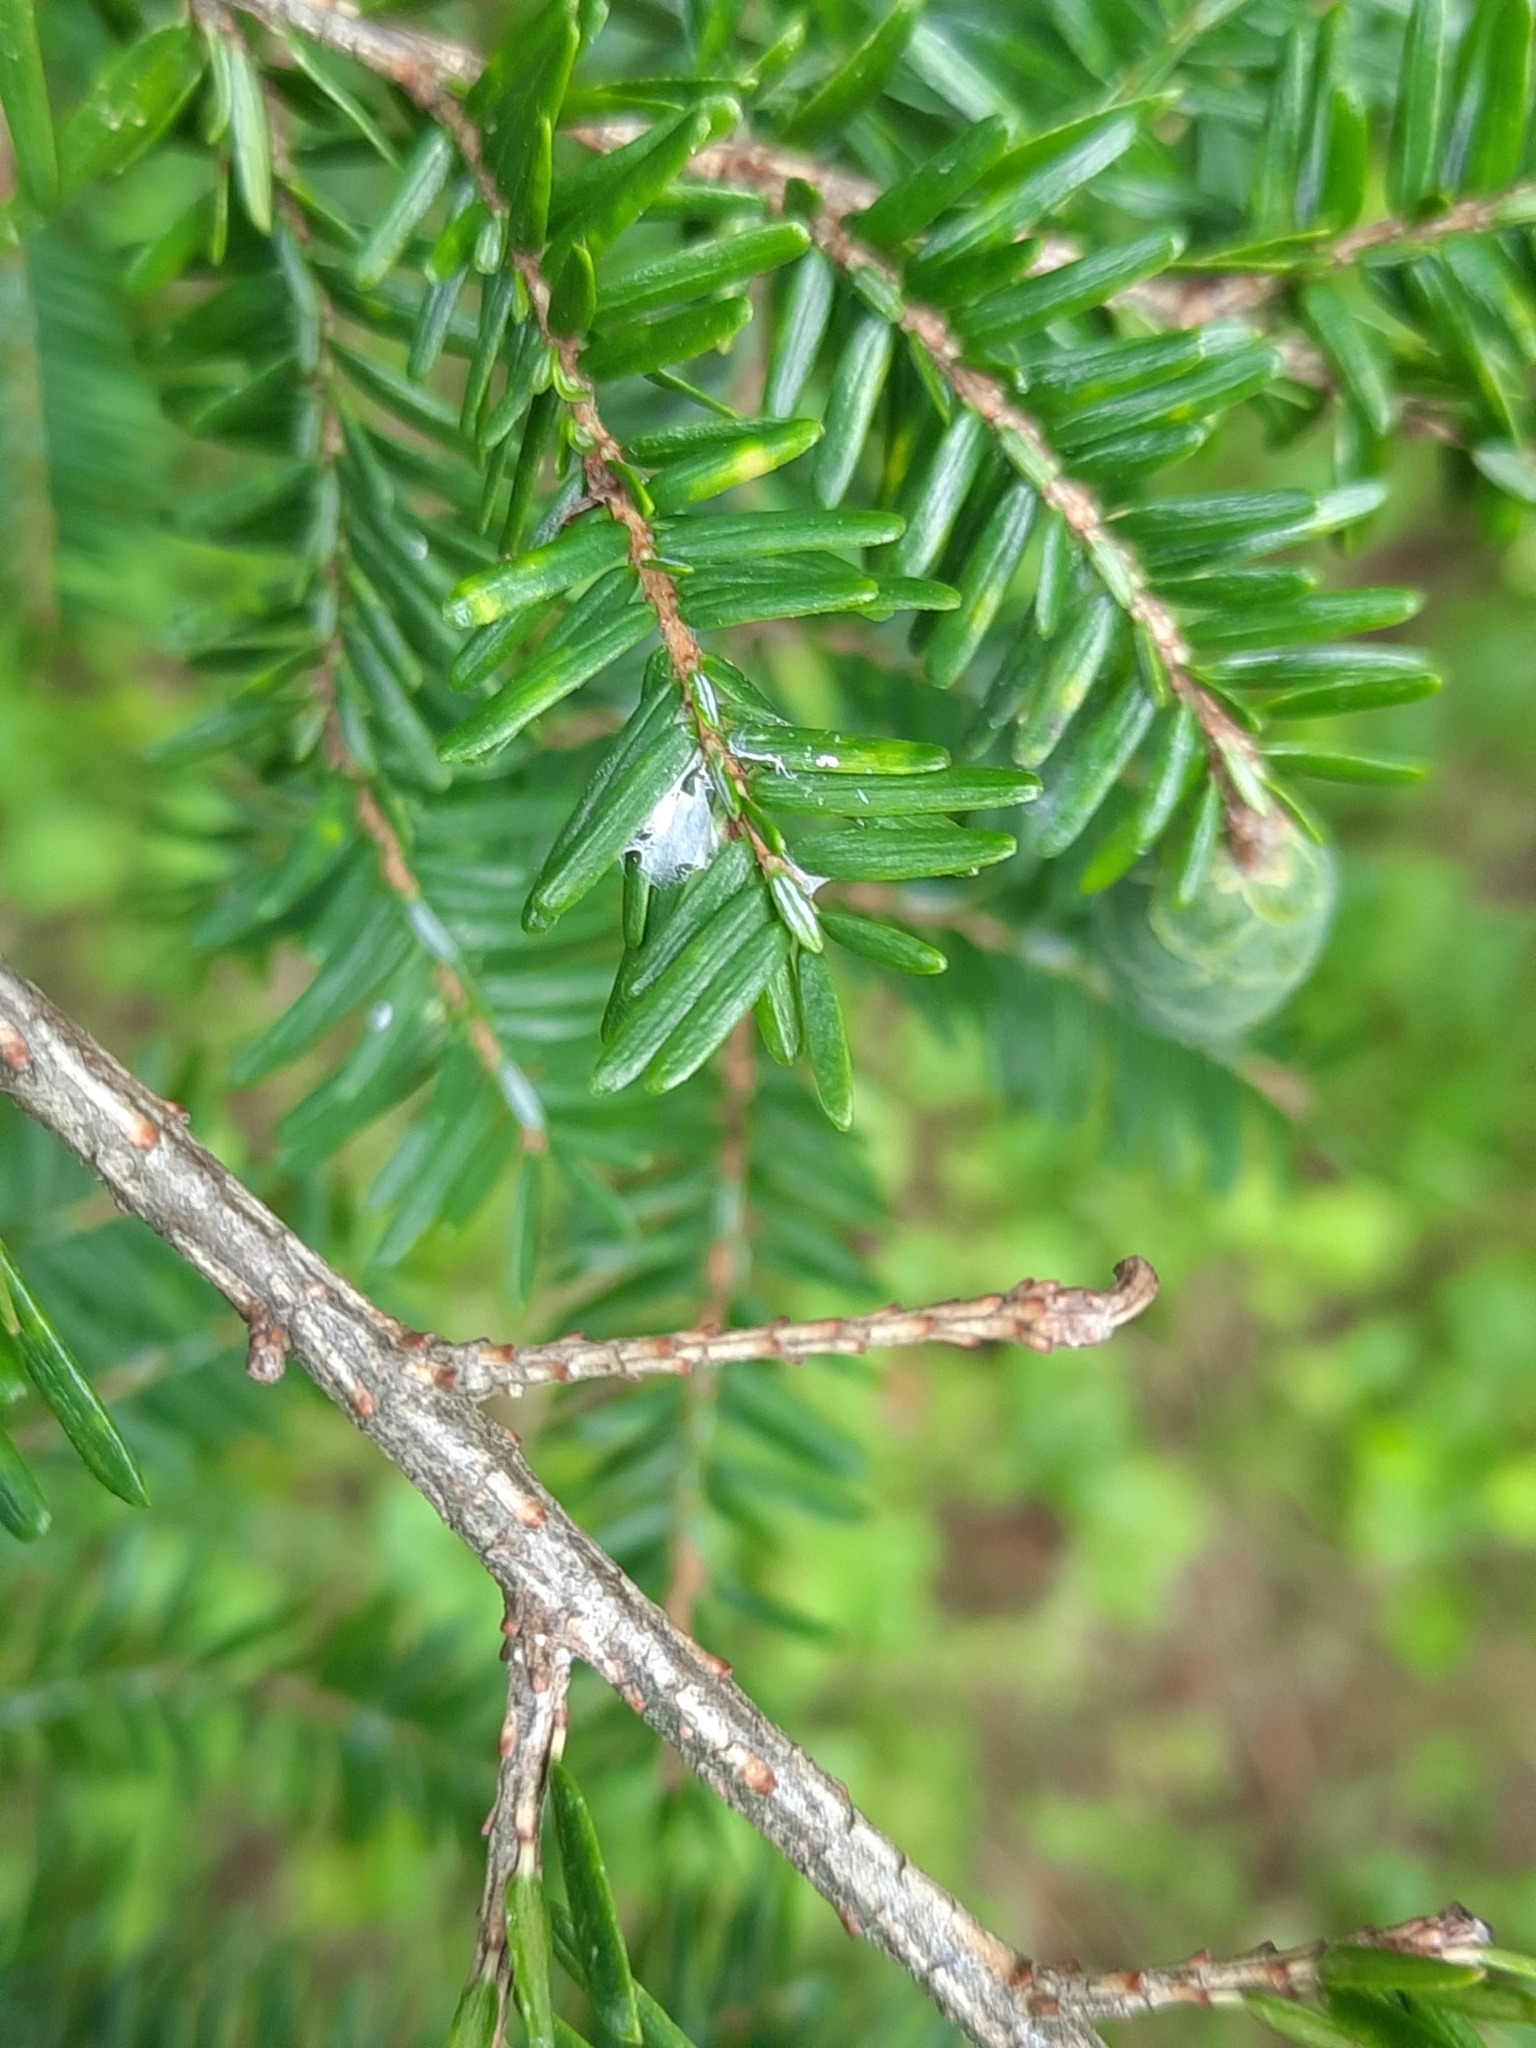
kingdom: Animalia
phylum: Arthropoda
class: Insecta
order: Hemiptera
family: Adelgidae
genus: Adelges
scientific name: Adelges tsugae
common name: Hemlock woolly adelgid
